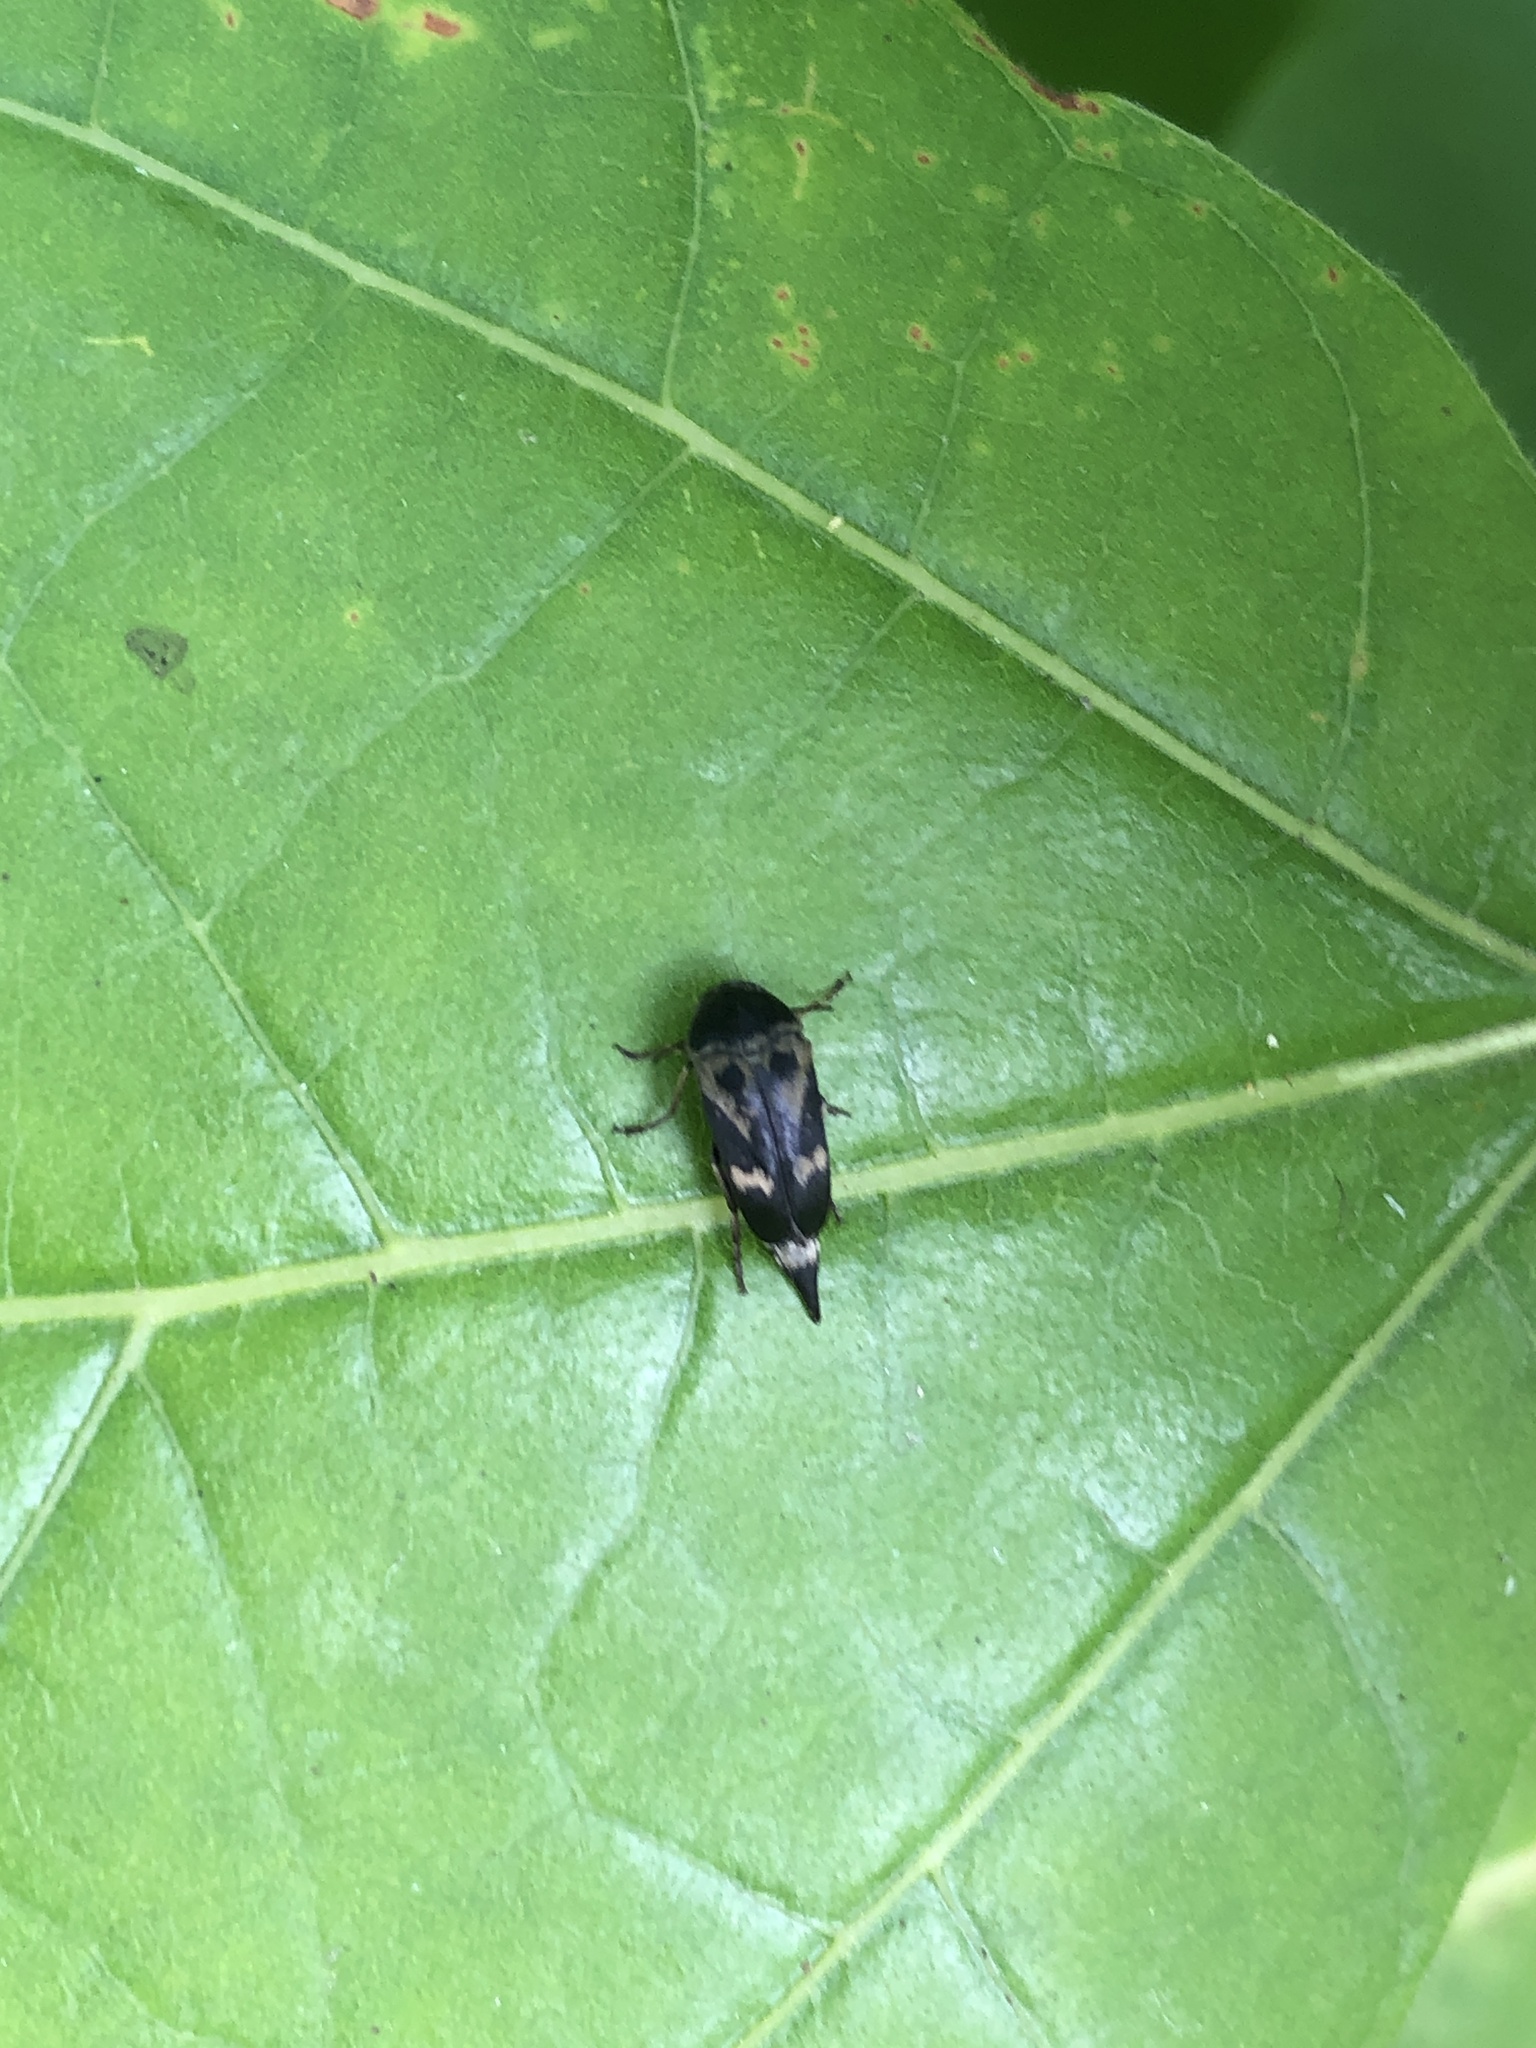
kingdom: Animalia
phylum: Arthropoda
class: Insecta
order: Coleoptera
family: Mordellidae
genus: Glipa
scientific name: Glipa oculata
